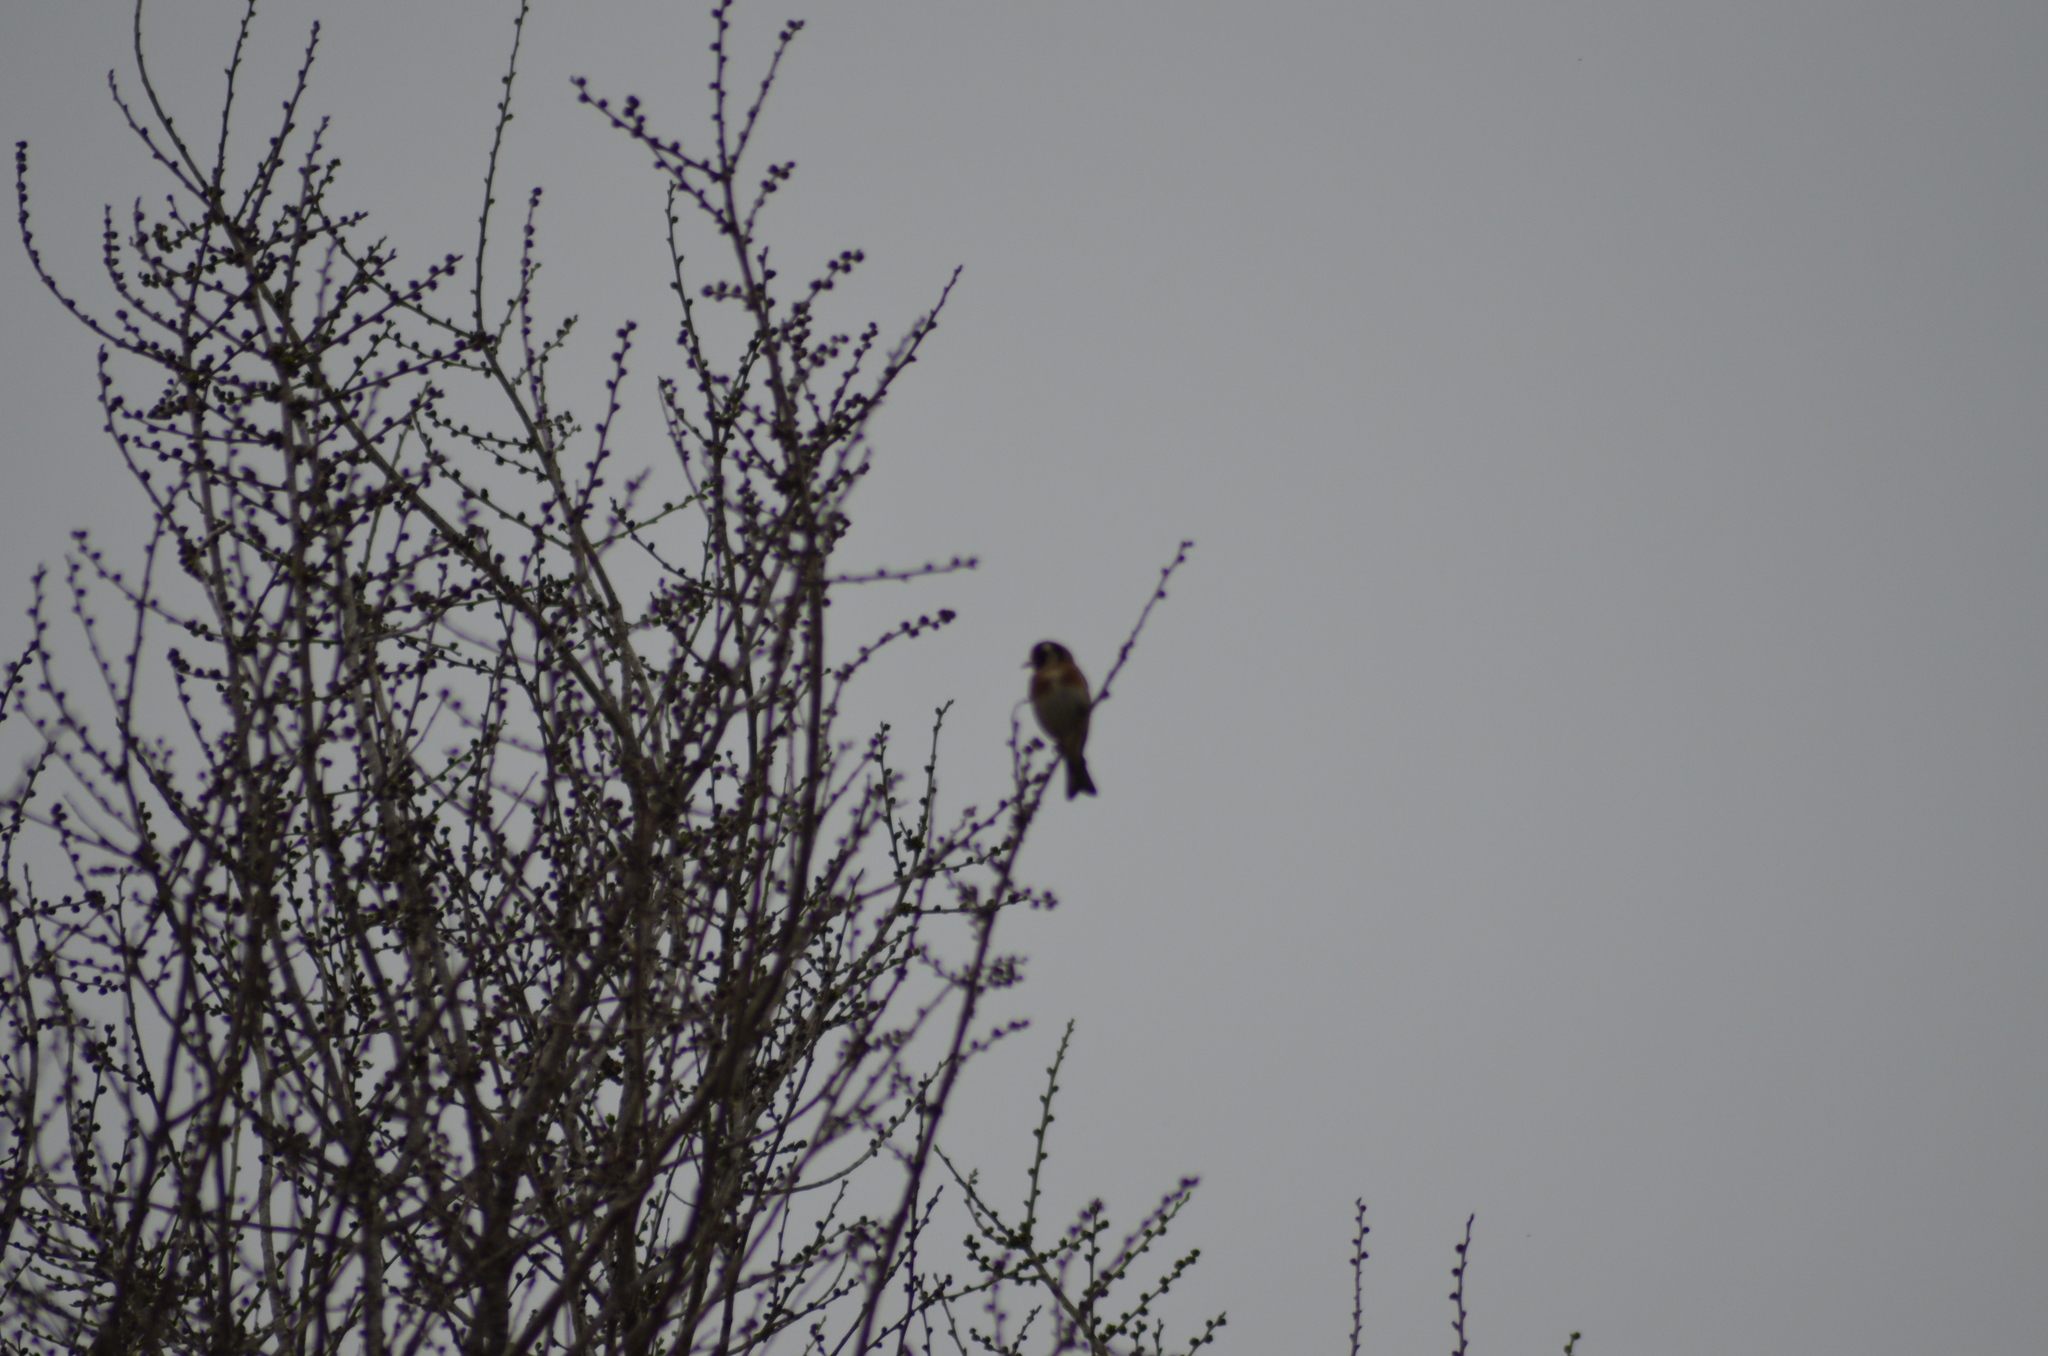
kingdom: Animalia
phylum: Chordata
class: Aves
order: Passeriformes
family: Fringillidae
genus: Carduelis
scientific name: Carduelis carduelis
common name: European goldfinch
